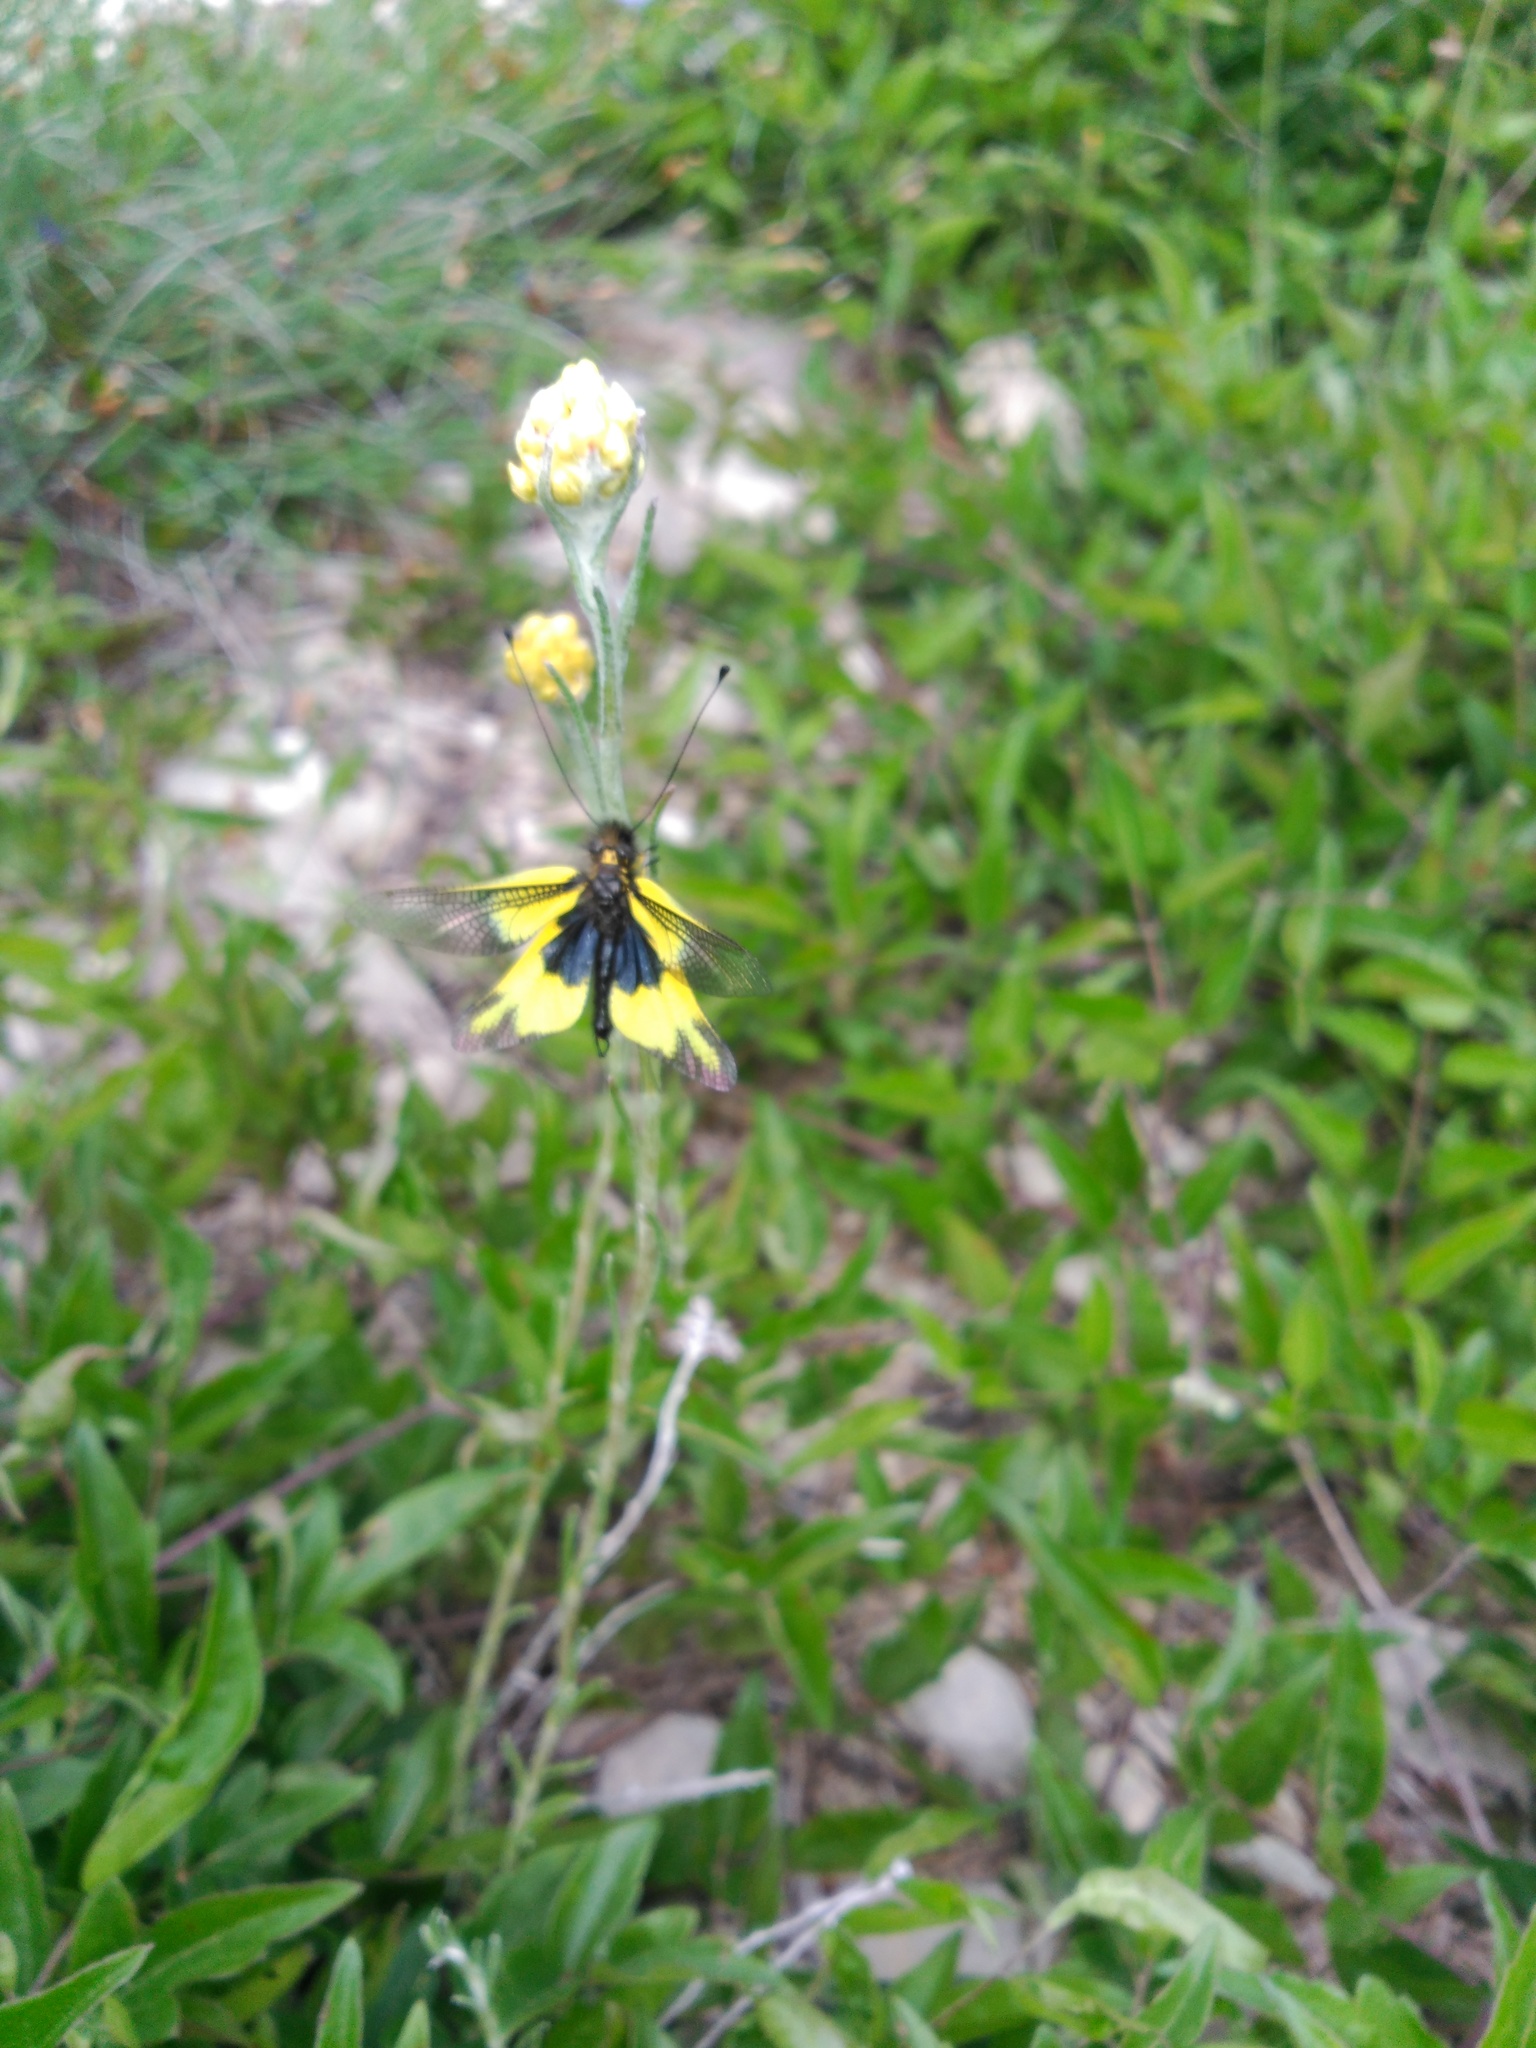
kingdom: Animalia
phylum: Arthropoda
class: Insecta
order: Neuroptera
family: Ascalaphidae
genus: Libelloides
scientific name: Libelloides cunii
